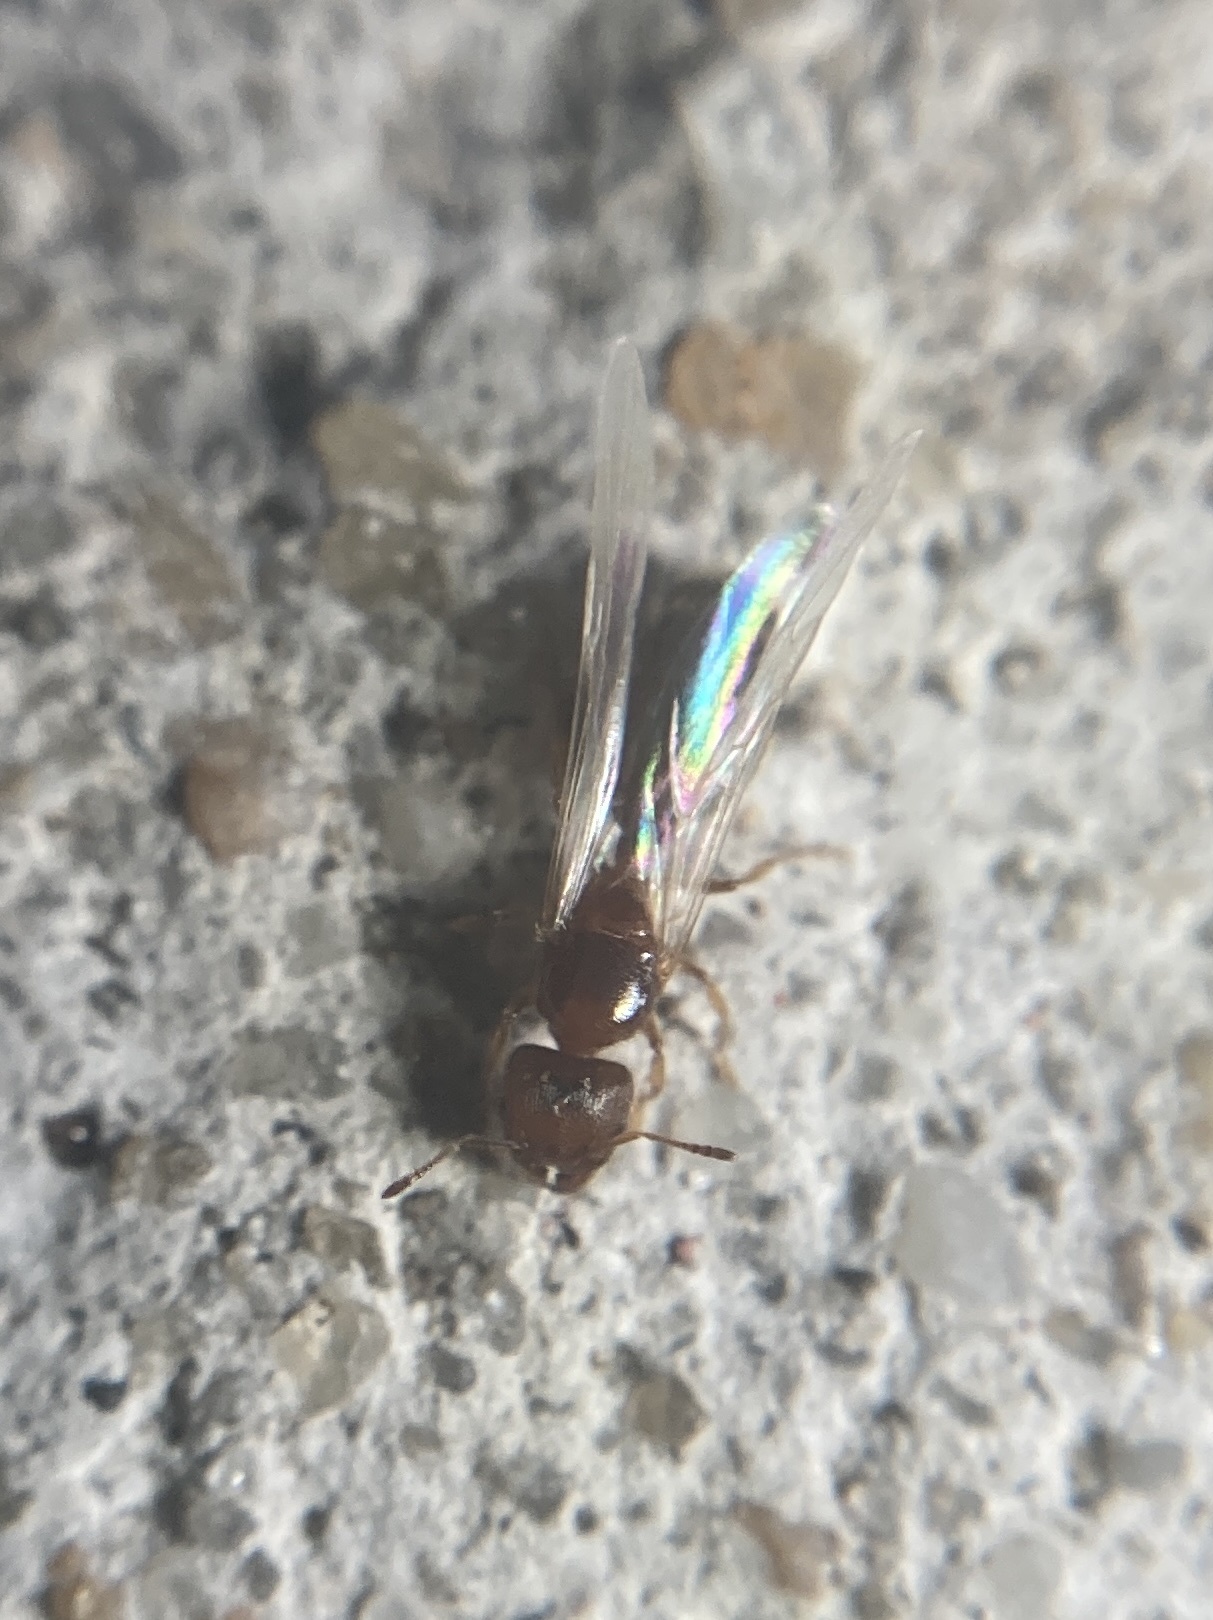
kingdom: Animalia
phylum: Arthropoda
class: Insecta
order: Hymenoptera
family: Formicidae
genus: Pheidole
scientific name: Pheidole bicarinata
